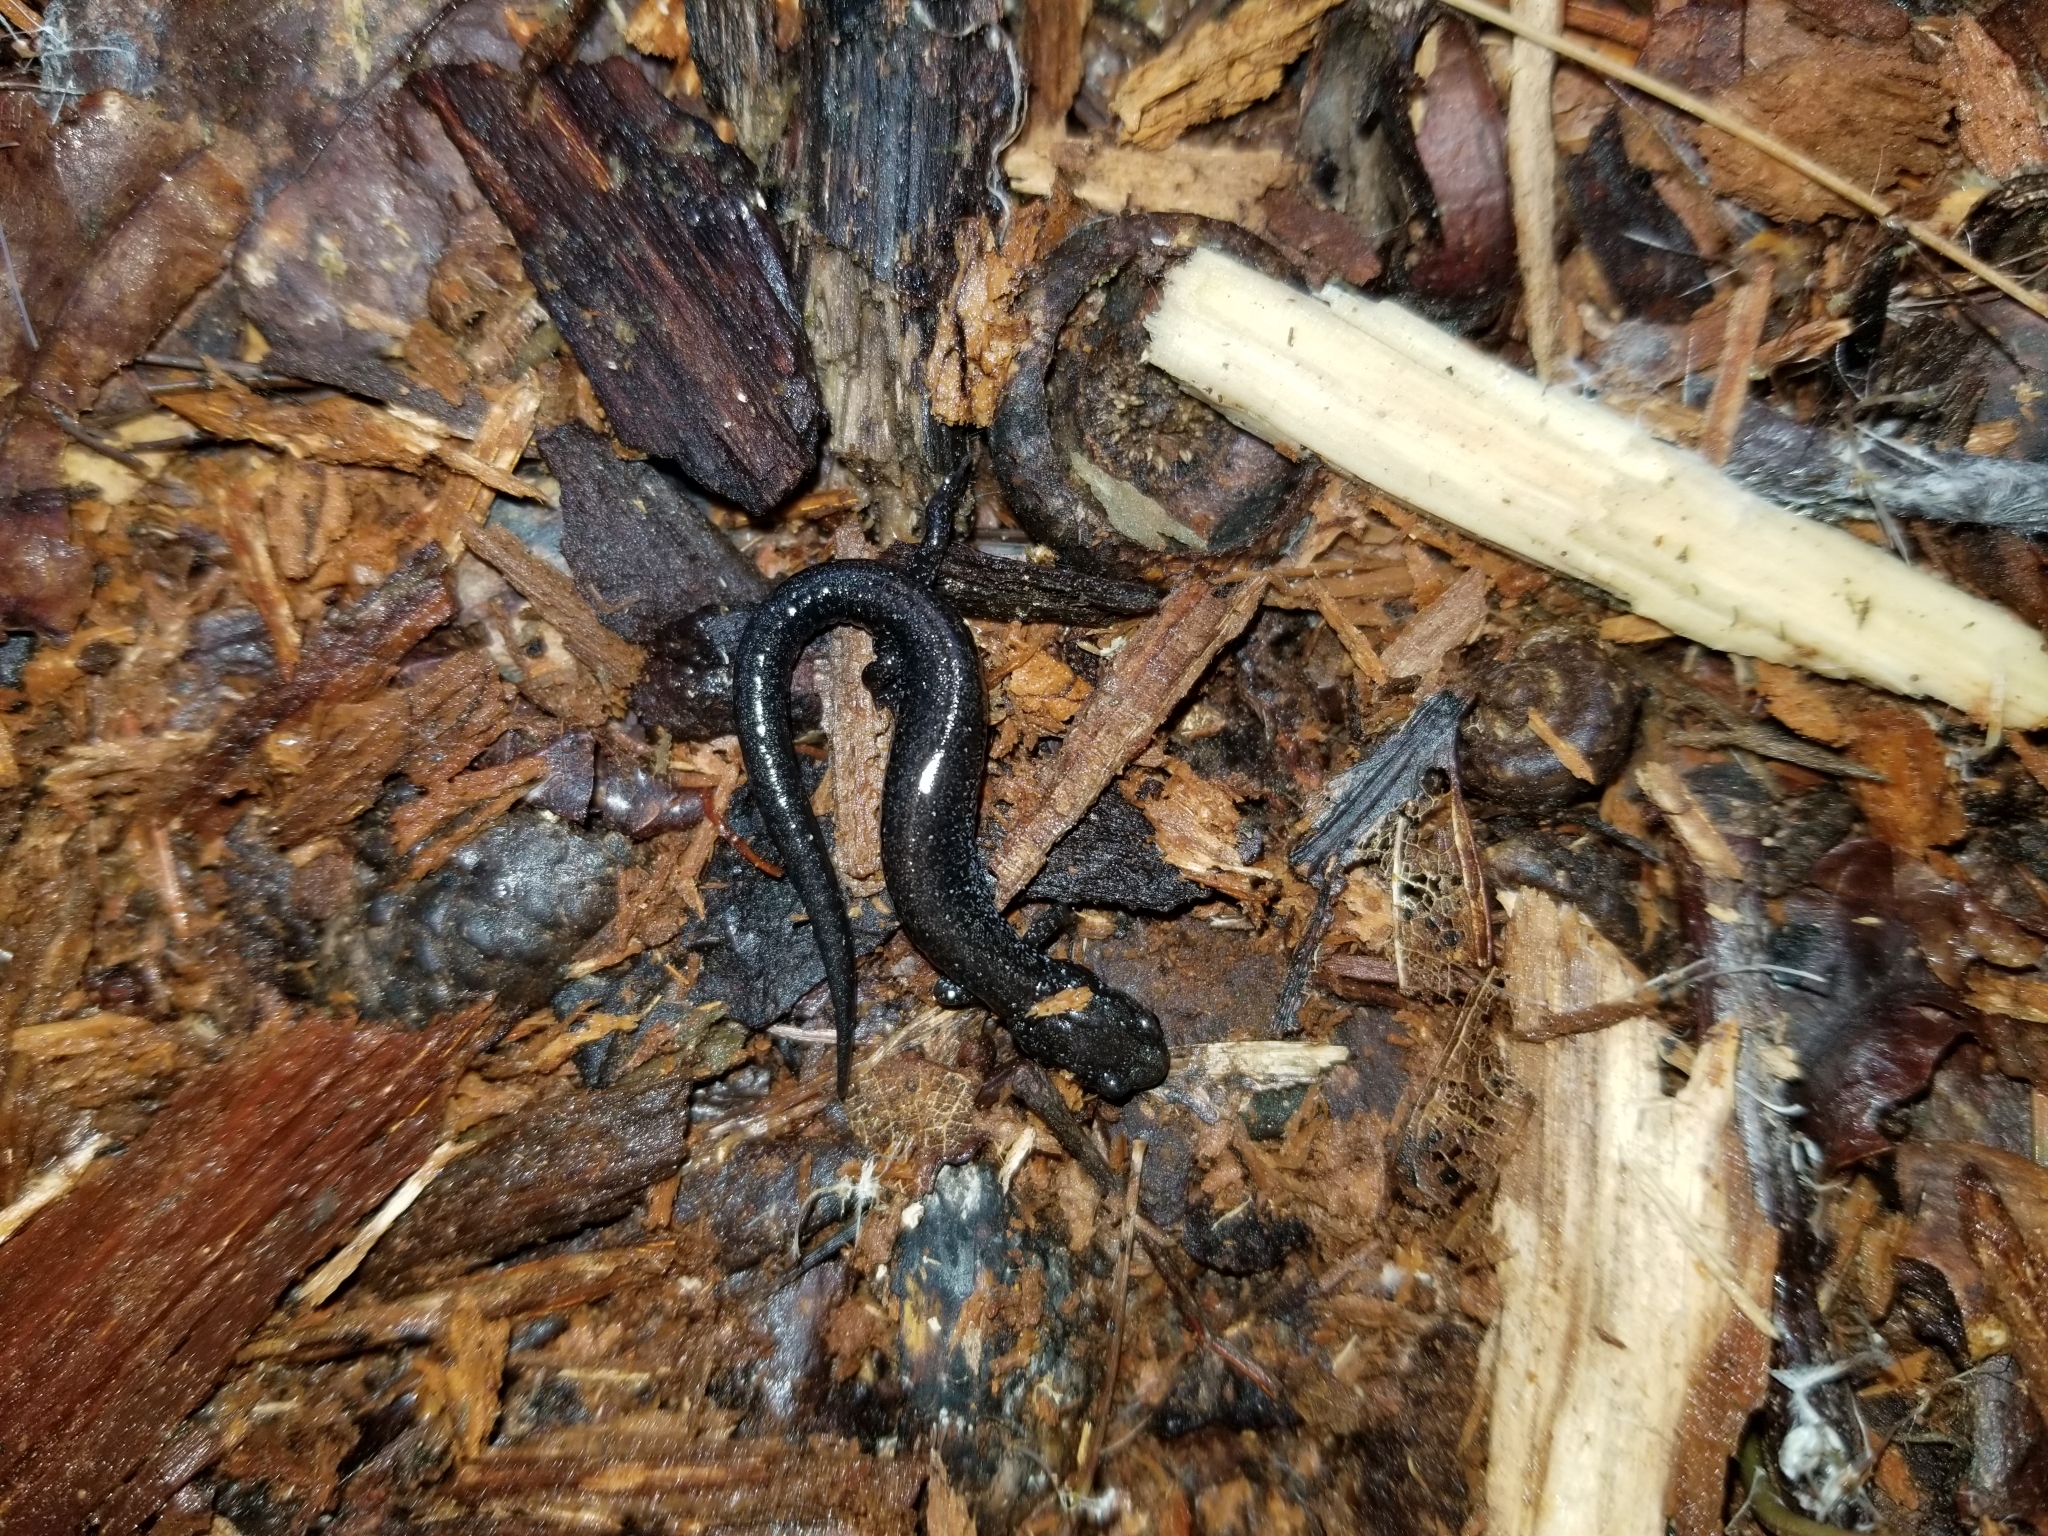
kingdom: Animalia
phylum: Chordata
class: Amphibia
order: Caudata
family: Plethodontidae
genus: Plethodon
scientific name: Plethodon cinereus
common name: Redback salamander
